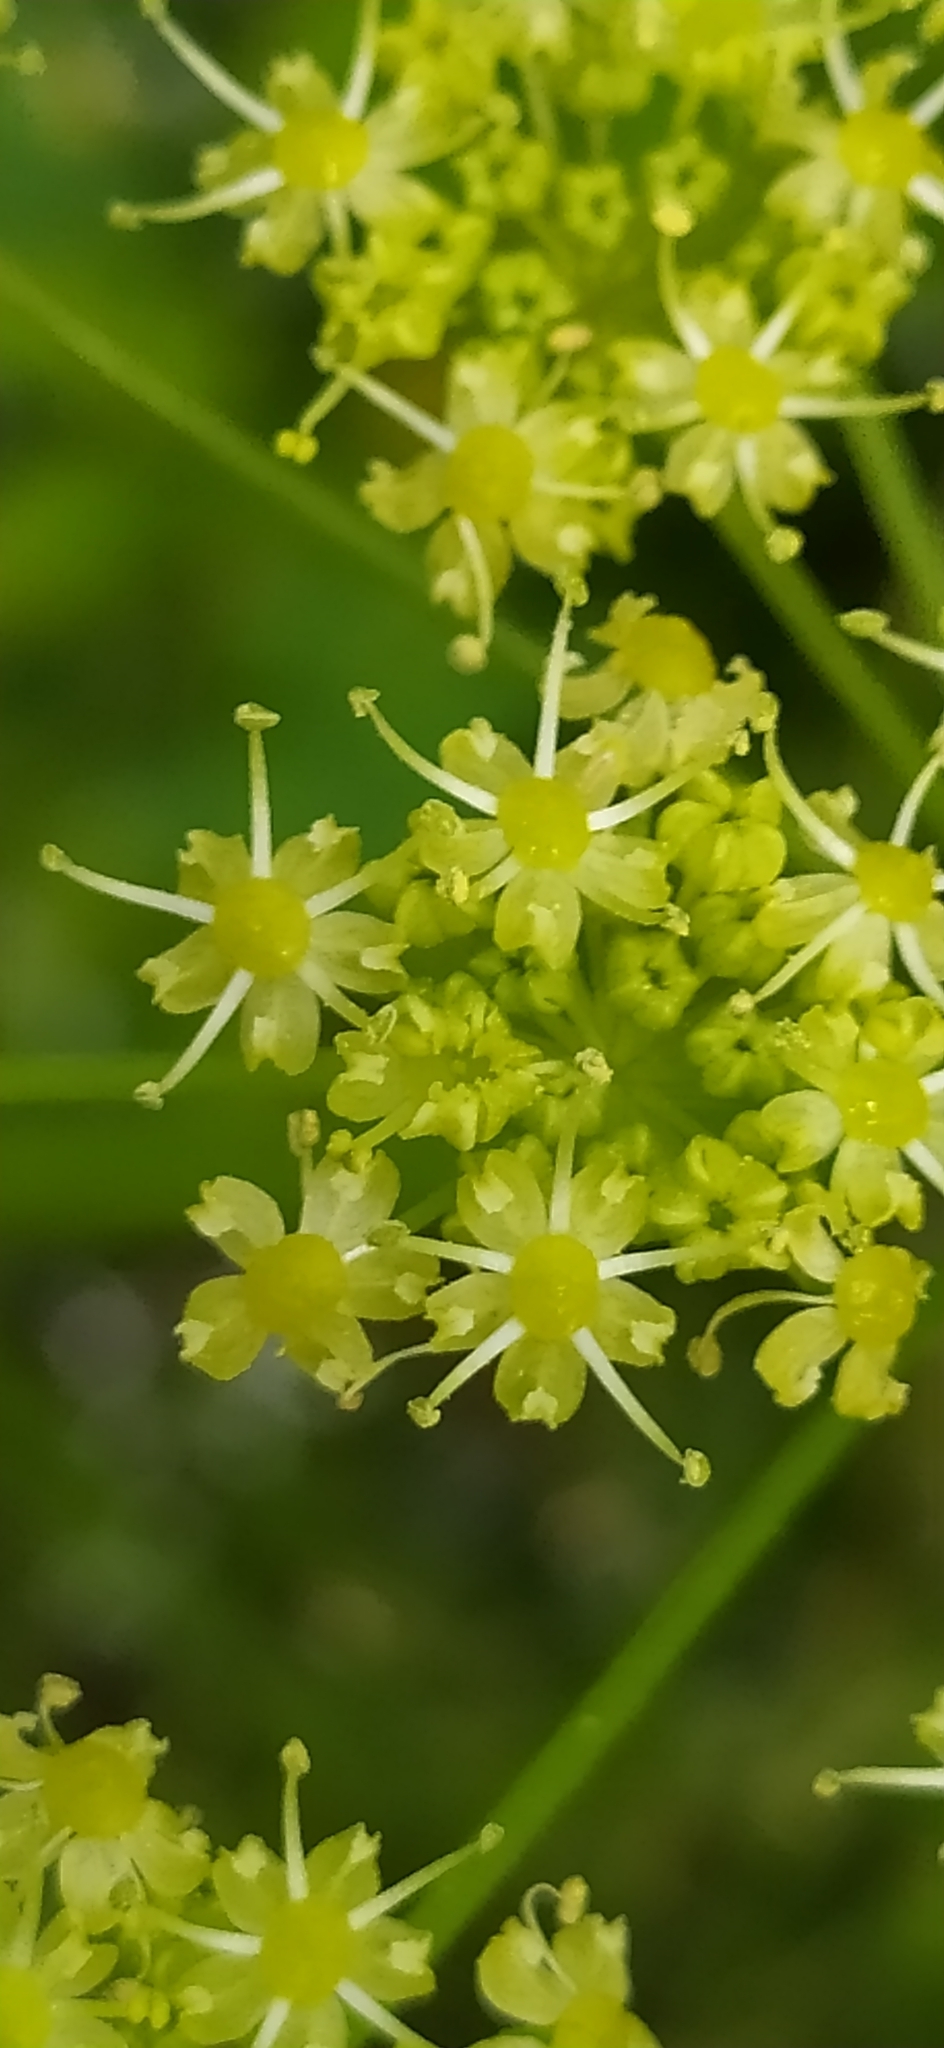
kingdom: Plantae
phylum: Tracheophyta
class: Magnoliopsida
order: Apiales
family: Apiaceae
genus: Heracleum
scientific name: Heracleum sphondylium
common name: Hogweed
